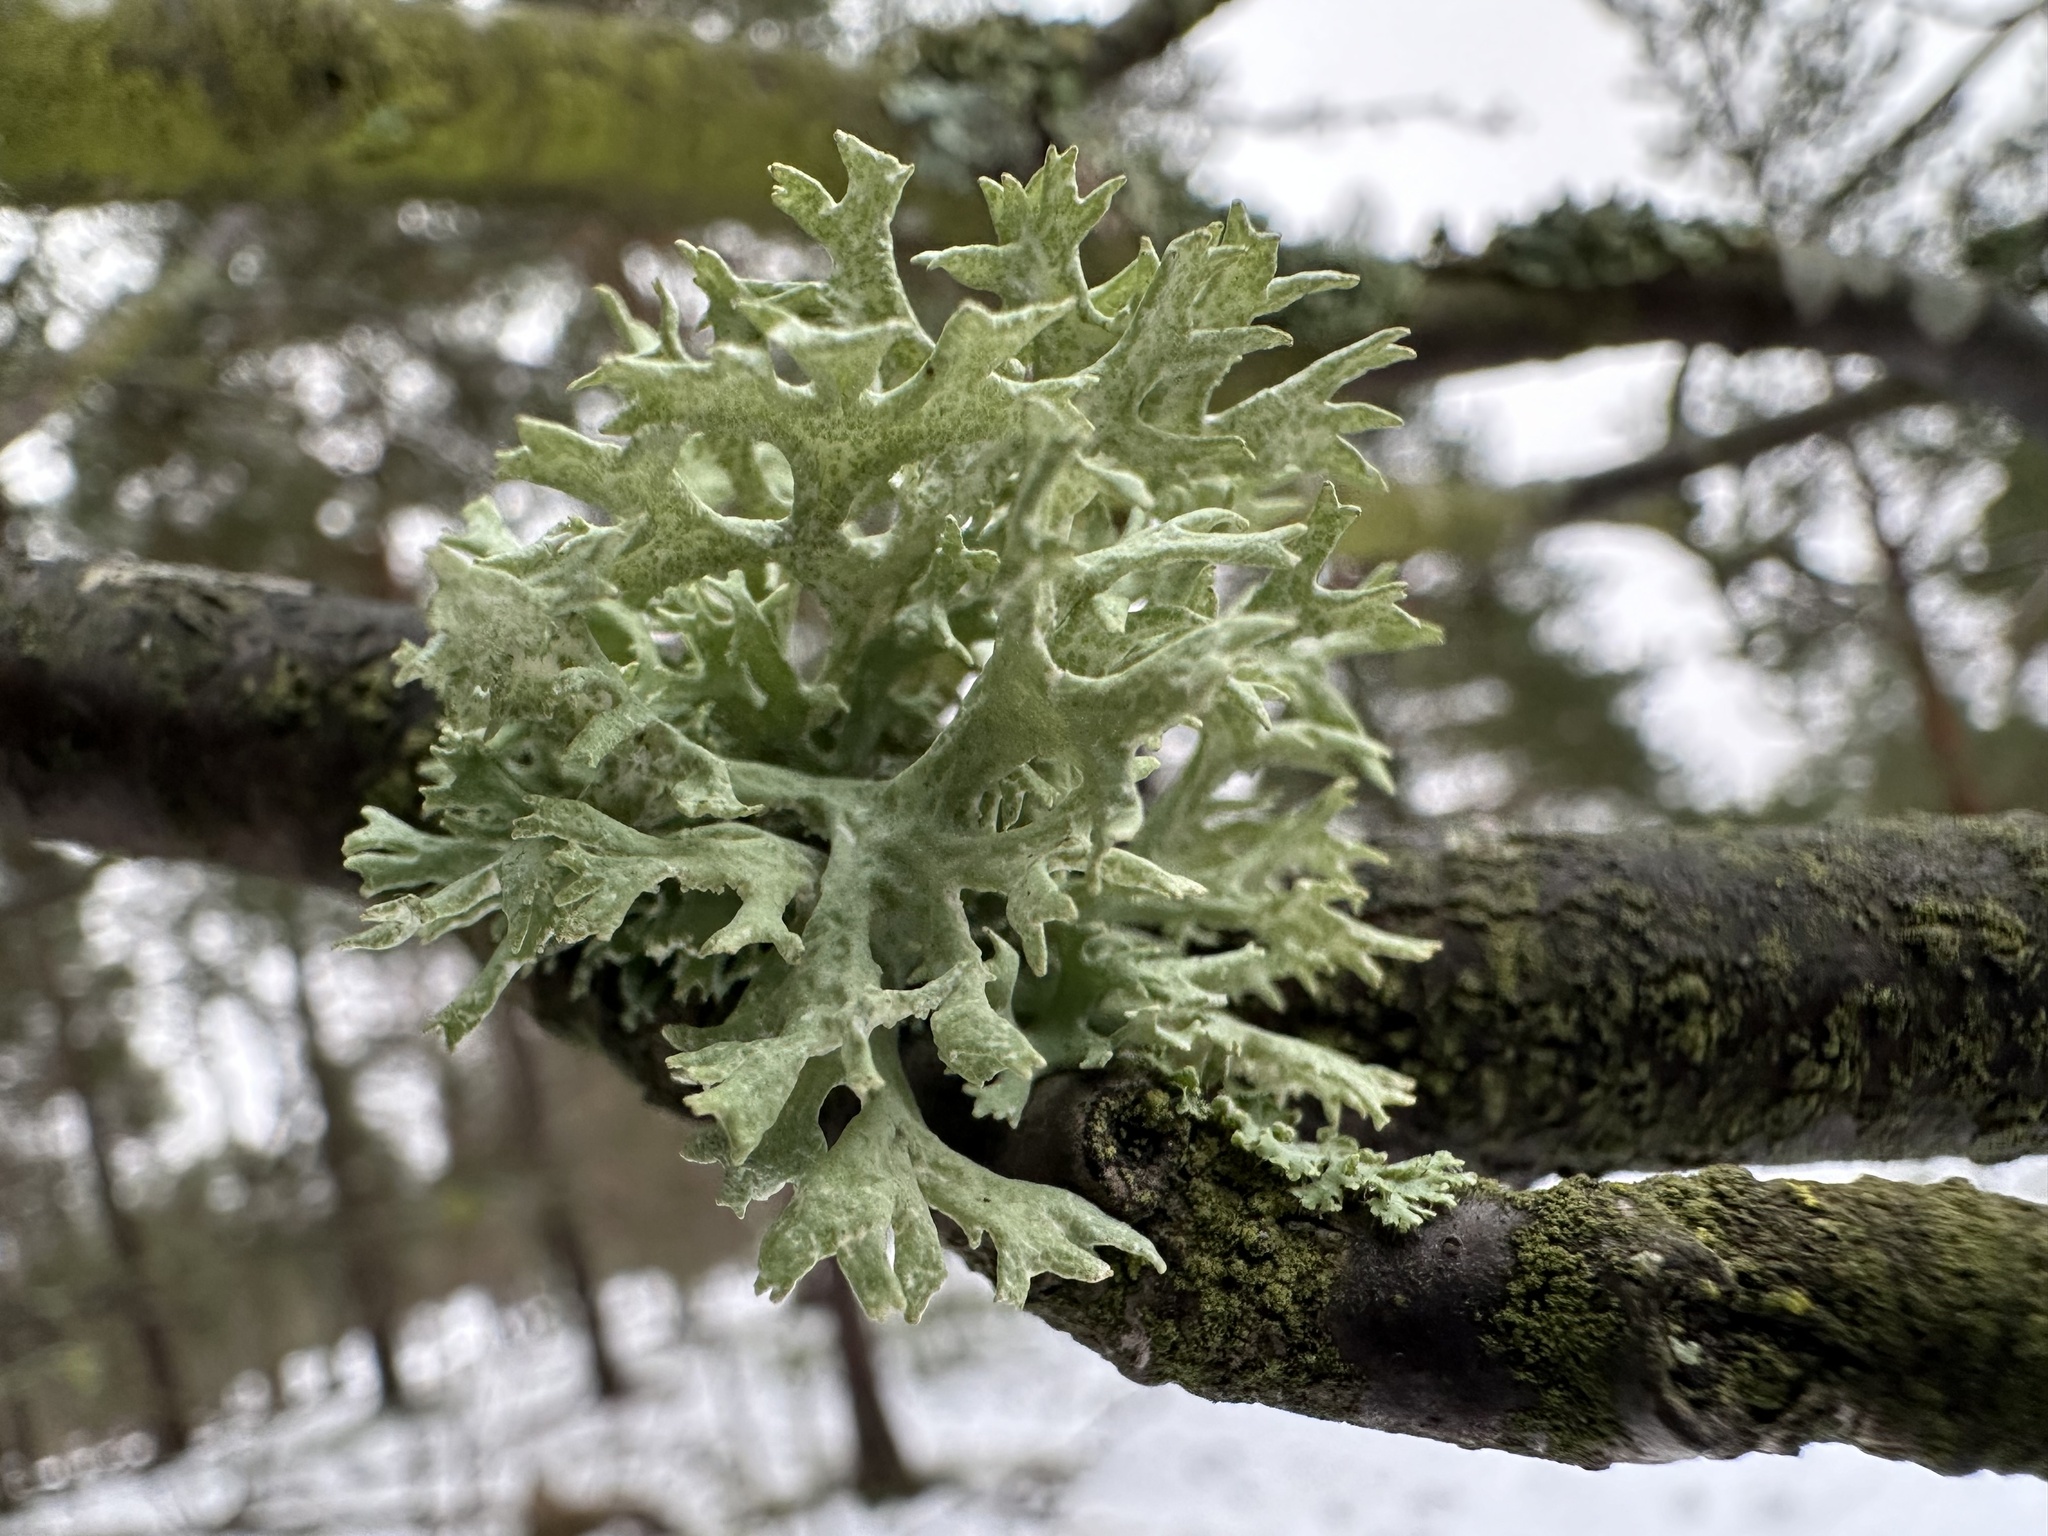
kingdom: Fungi
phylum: Ascomycota
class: Lecanoromycetes
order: Lecanorales
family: Parmeliaceae
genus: Evernia
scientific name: Evernia prunastri
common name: Oak moss
